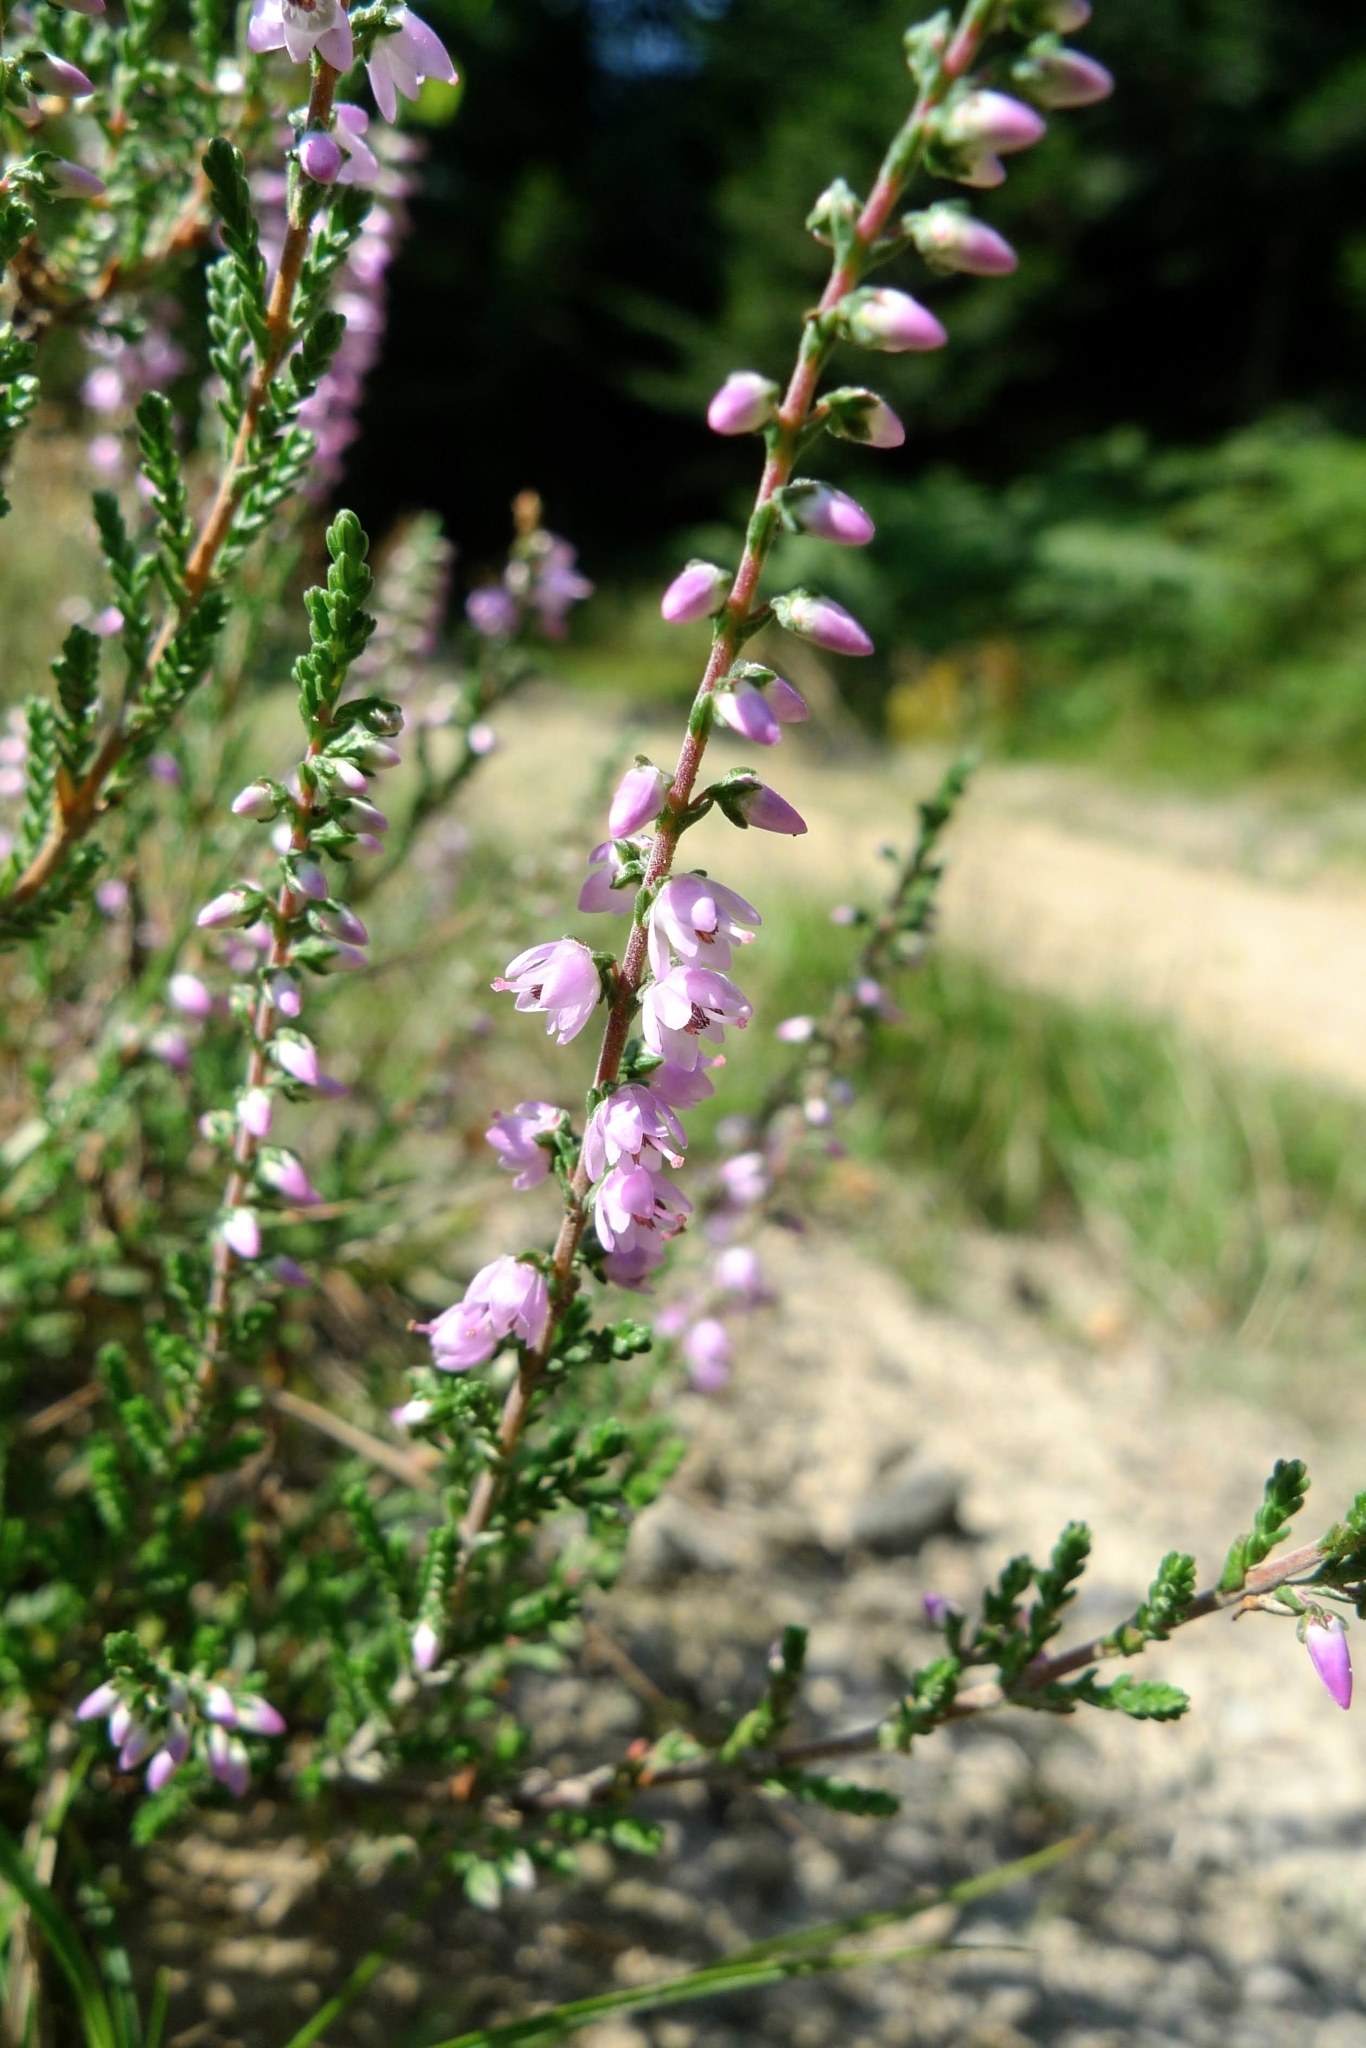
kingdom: Plantae
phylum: Tracheophyta
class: Magnoliopsida
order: Ericales
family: Ericaceae
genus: Calluna
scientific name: Calluna vulgaris
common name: Heather
